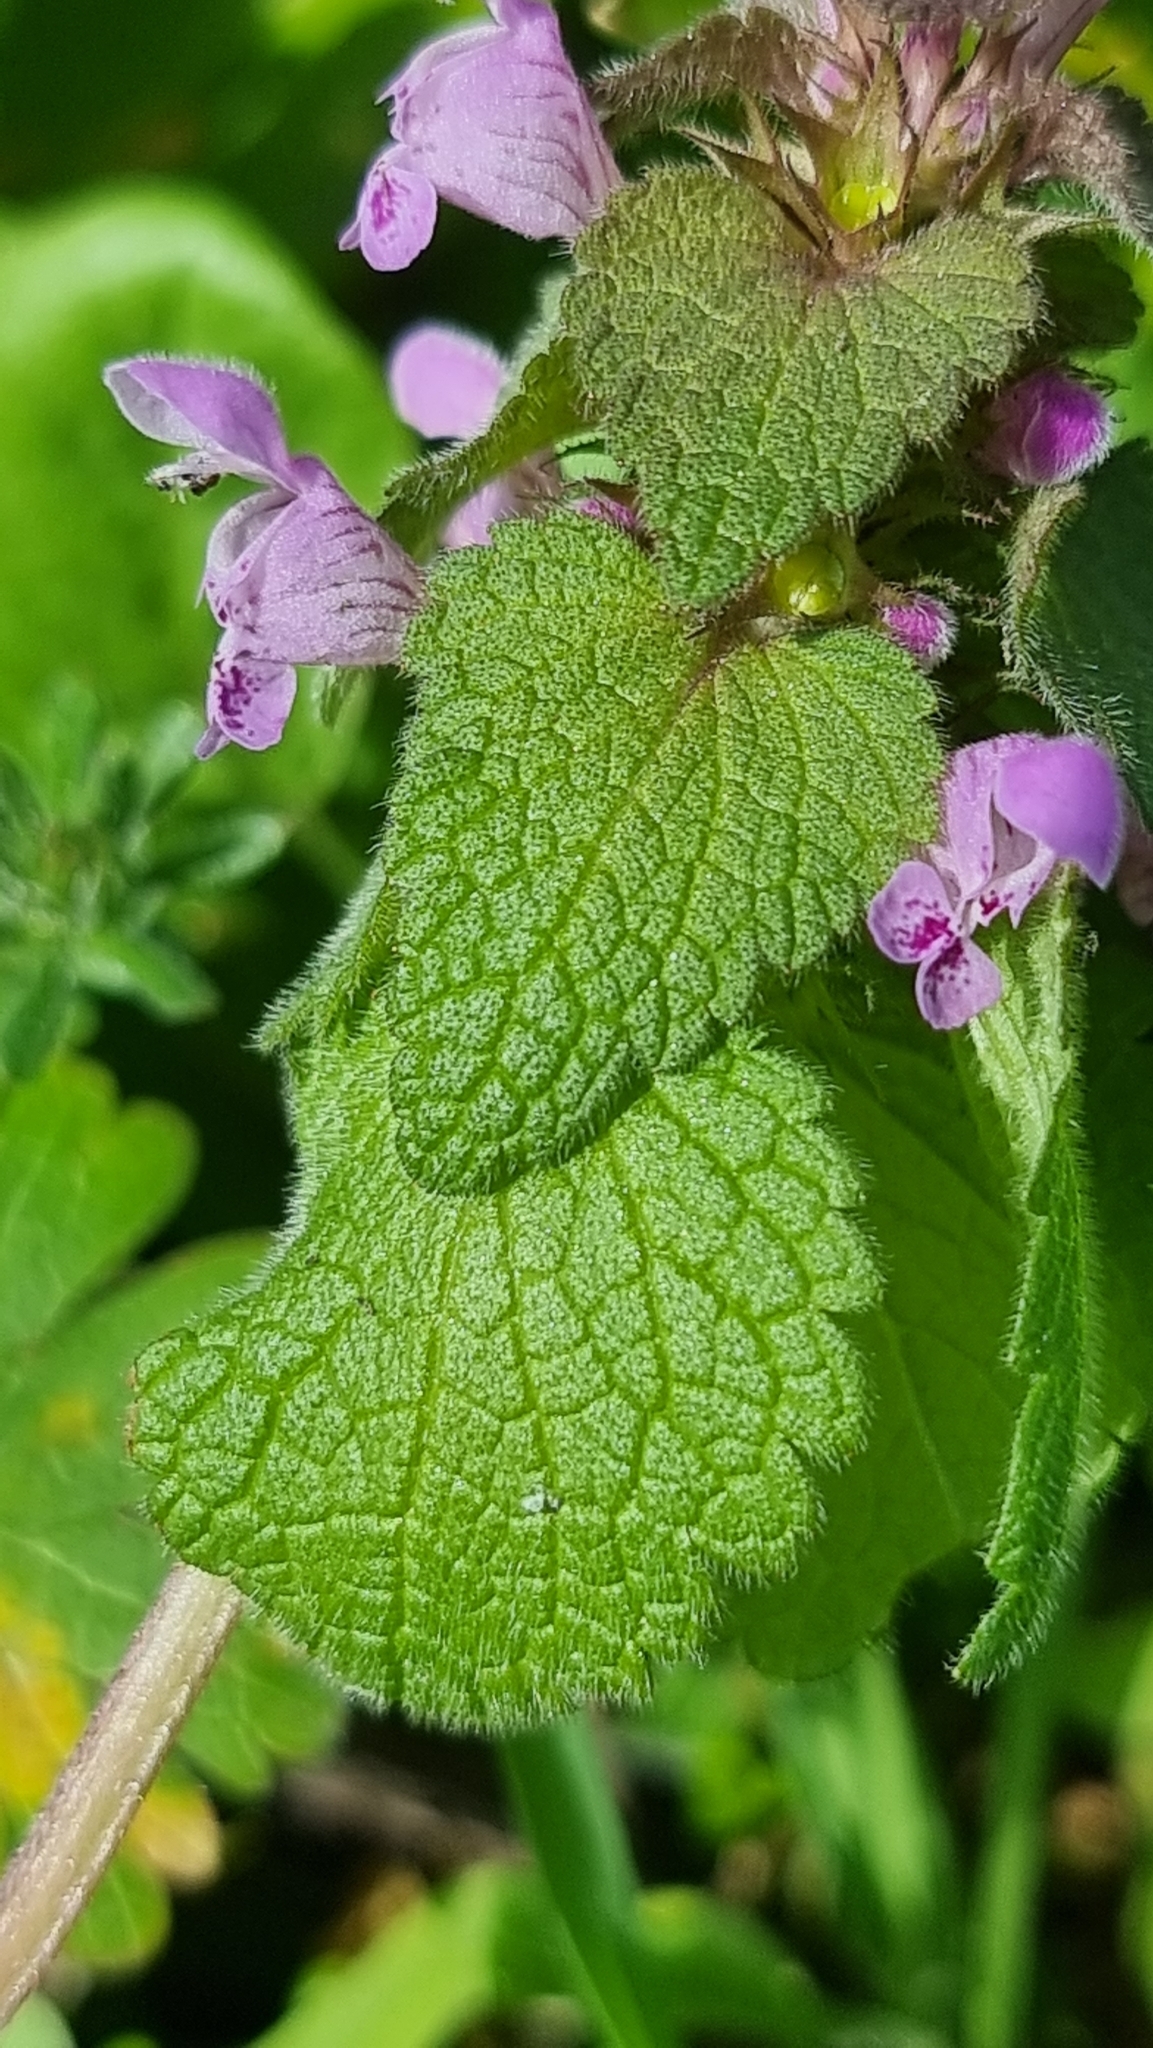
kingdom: Plantae
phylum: Tracheophyta
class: Magnoliopsida
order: Lamiales
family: Lamiaceae
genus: Lamium
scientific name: Lamium purpureum
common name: Red dead-nettle
